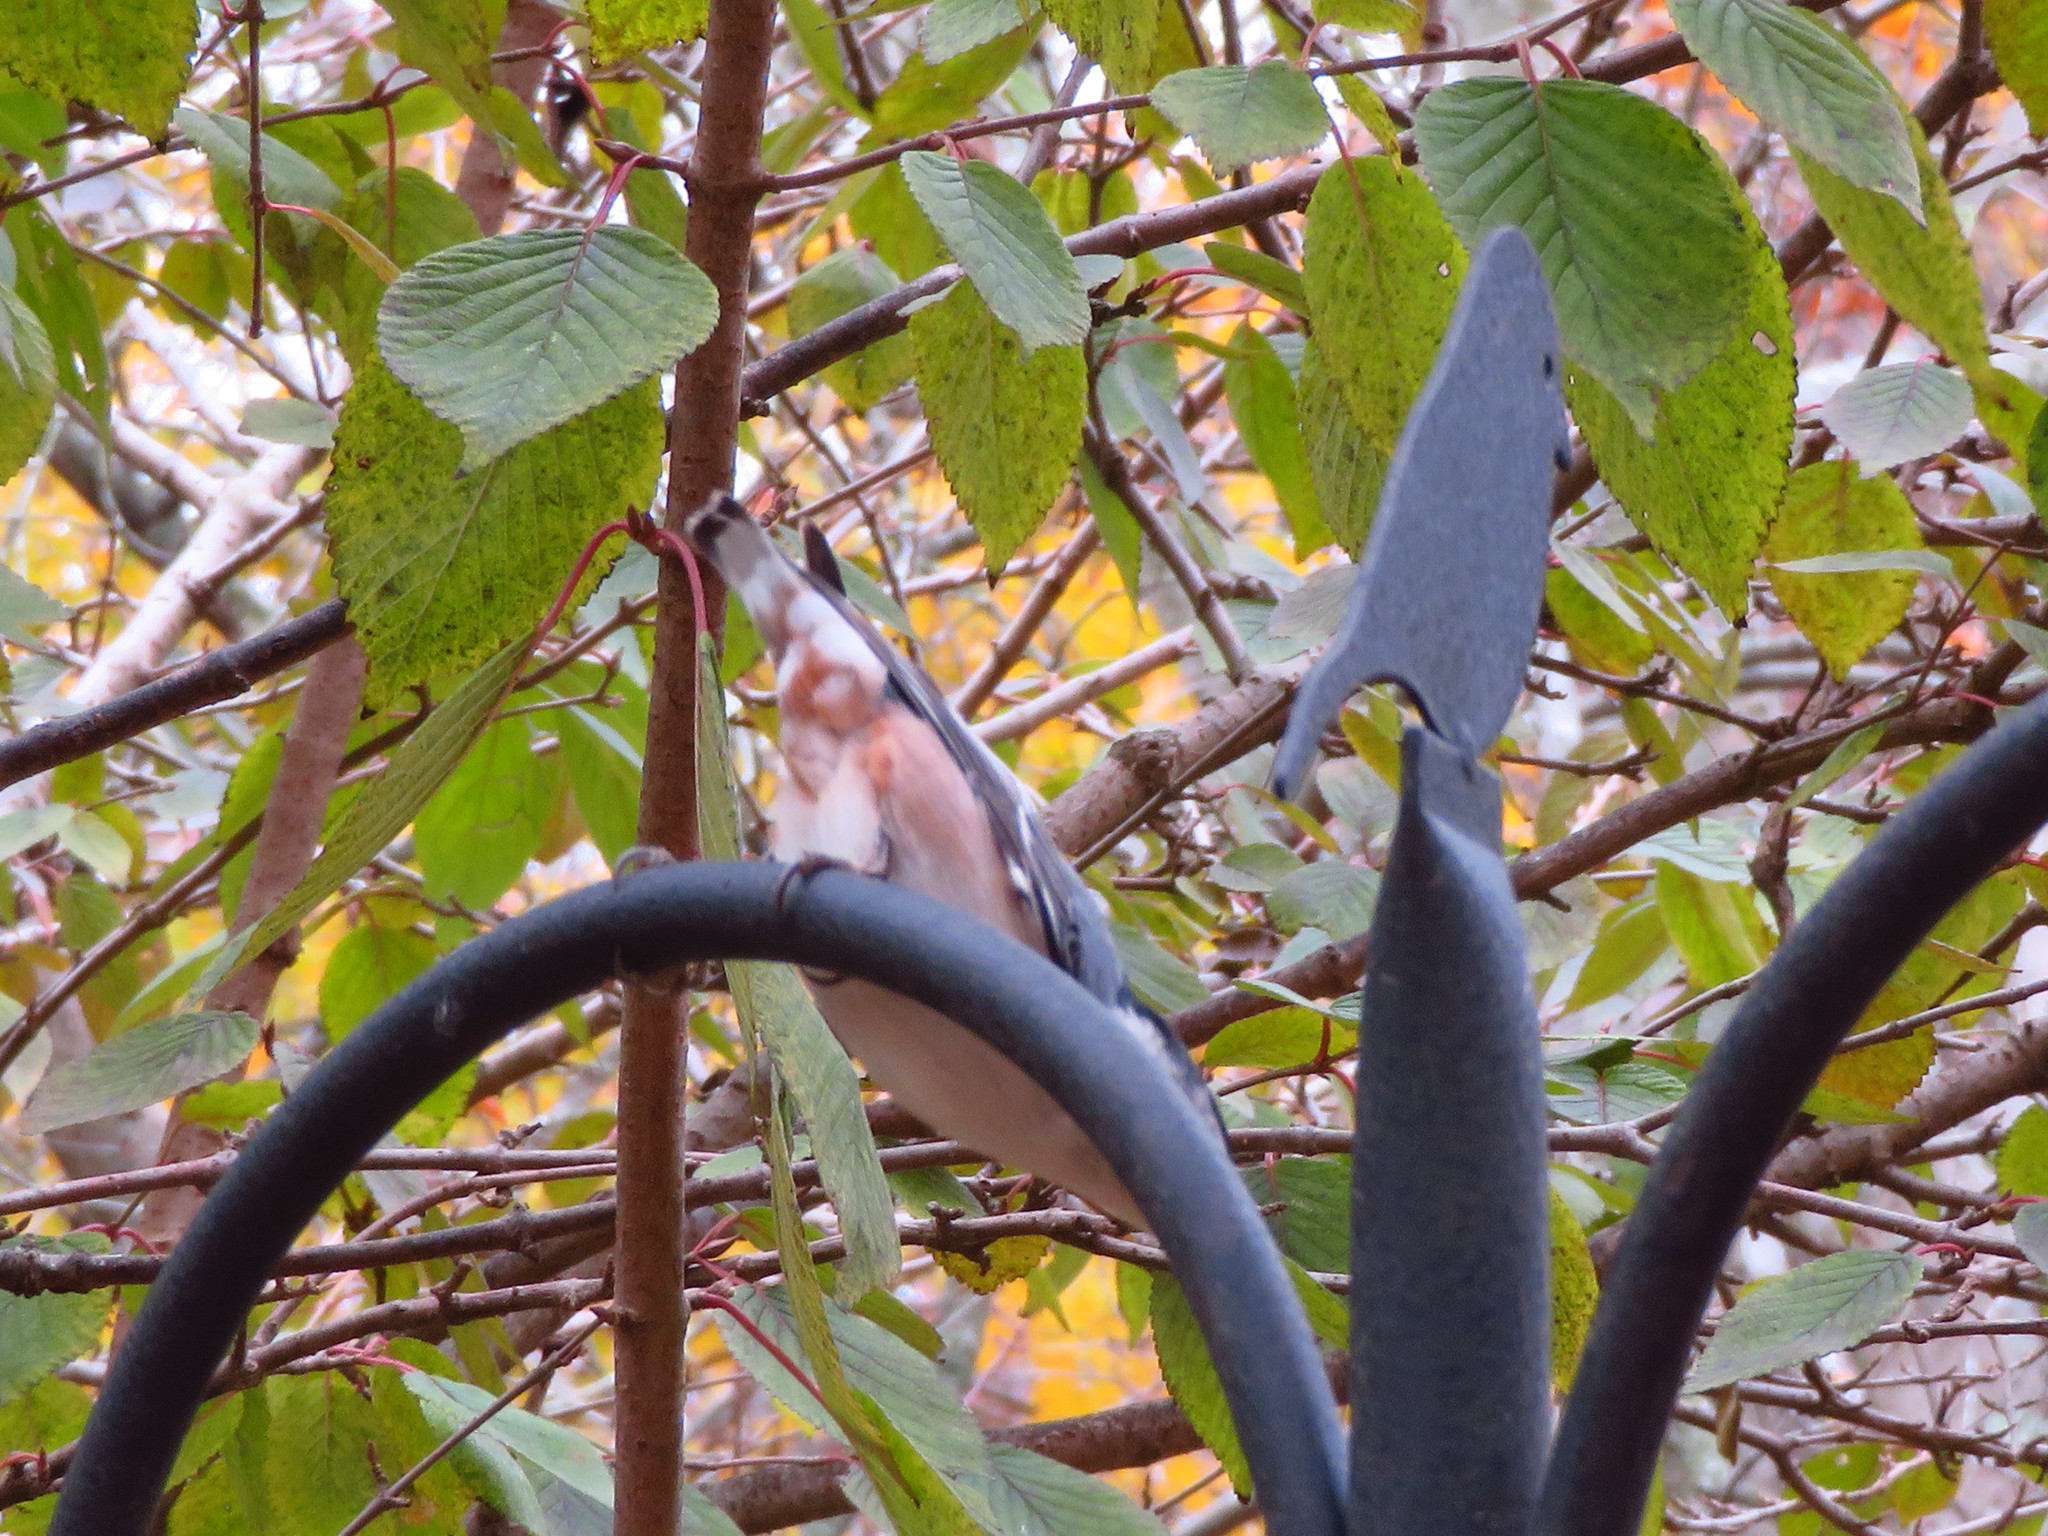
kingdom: Animalia
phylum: Chordata
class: Aves
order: Passeriformes
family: Sittidae
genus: Sitta
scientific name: Sitta carolinensis
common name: White-breasted nuthatch
